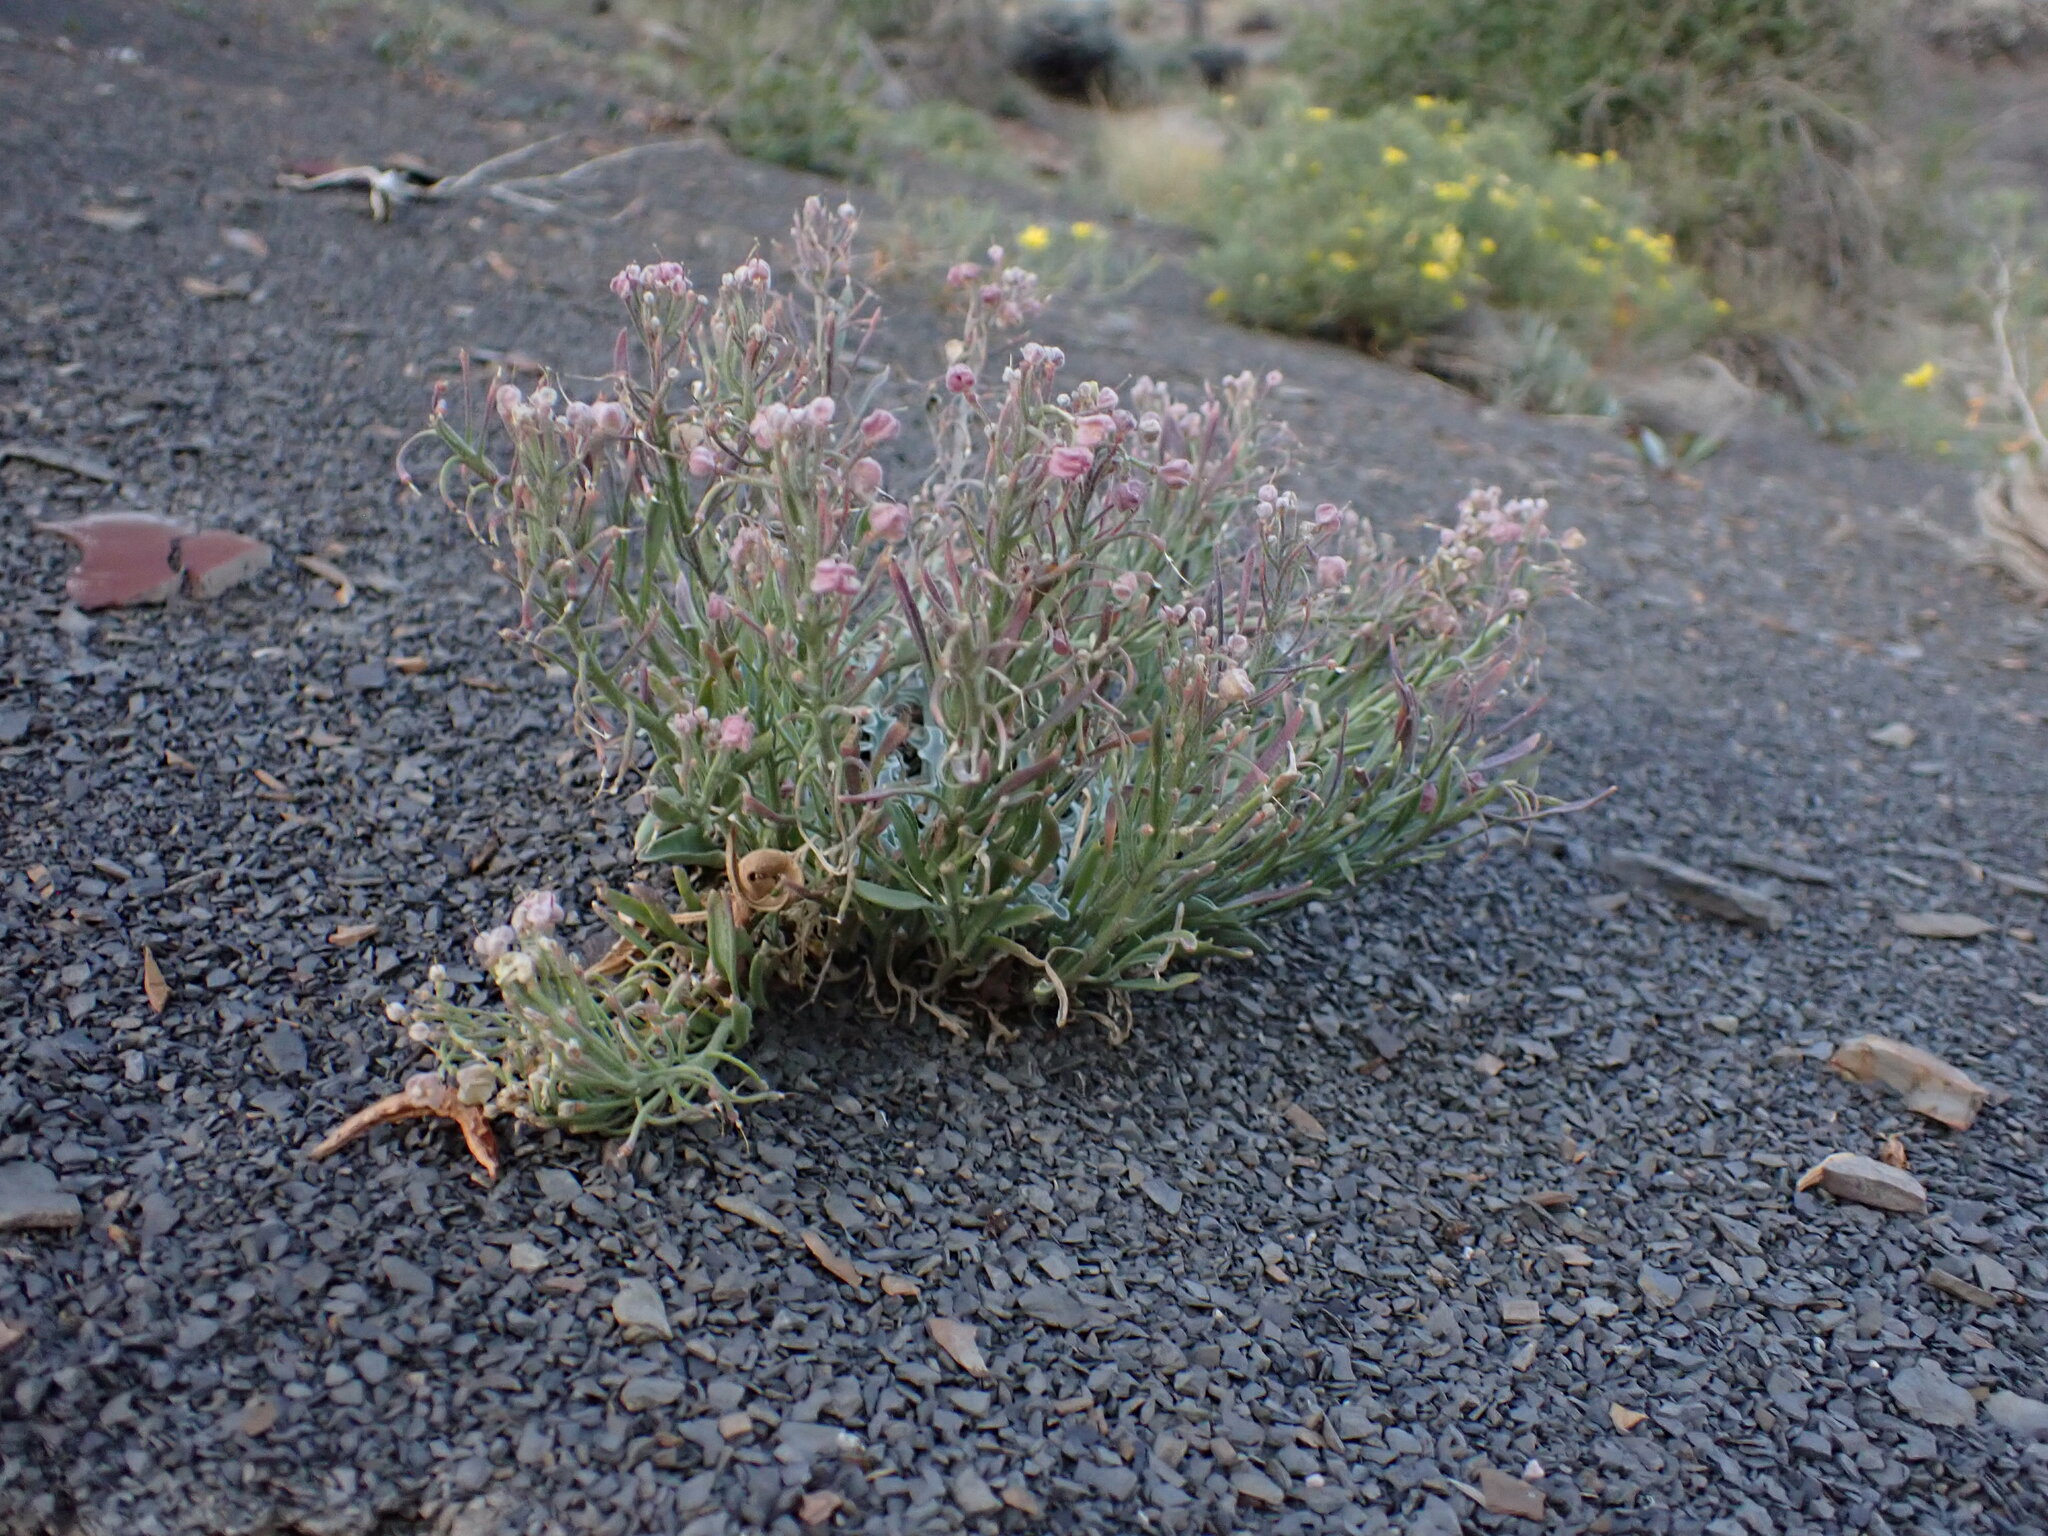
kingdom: Plantae
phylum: Tracheophyta
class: Magnoliopsida
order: Brassicales
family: Brassicaceae
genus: Physaria
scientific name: Physaria floribunda
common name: Point-tip twinpod
